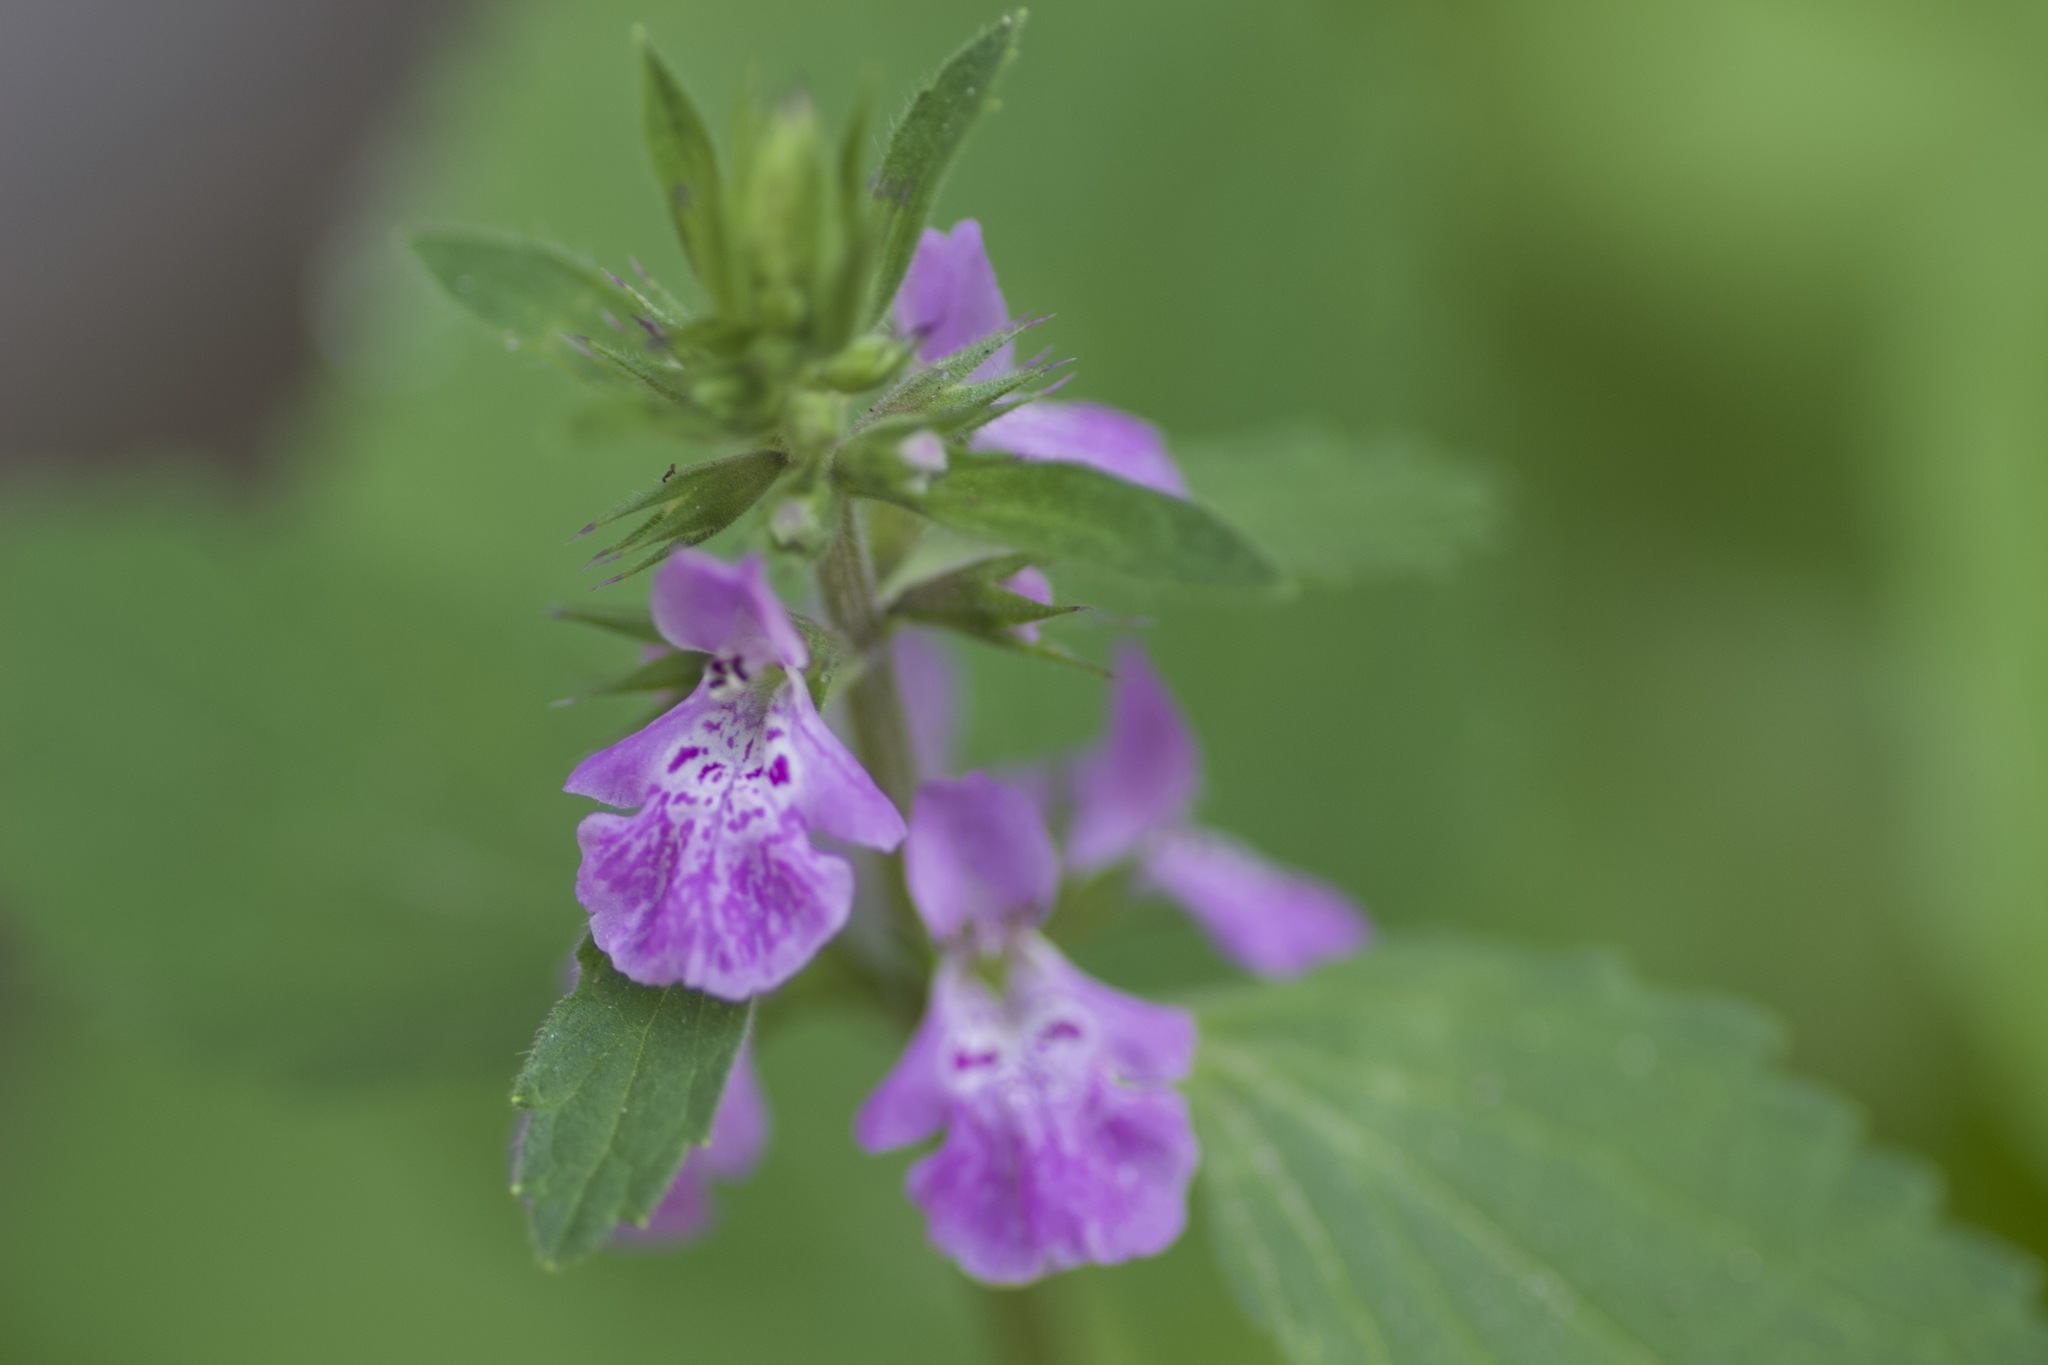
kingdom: Plantae
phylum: Tracheophyta
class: Magnoliopsida
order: Lamiales
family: Lamiaceae
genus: Stachys
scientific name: Stachys drummondii
